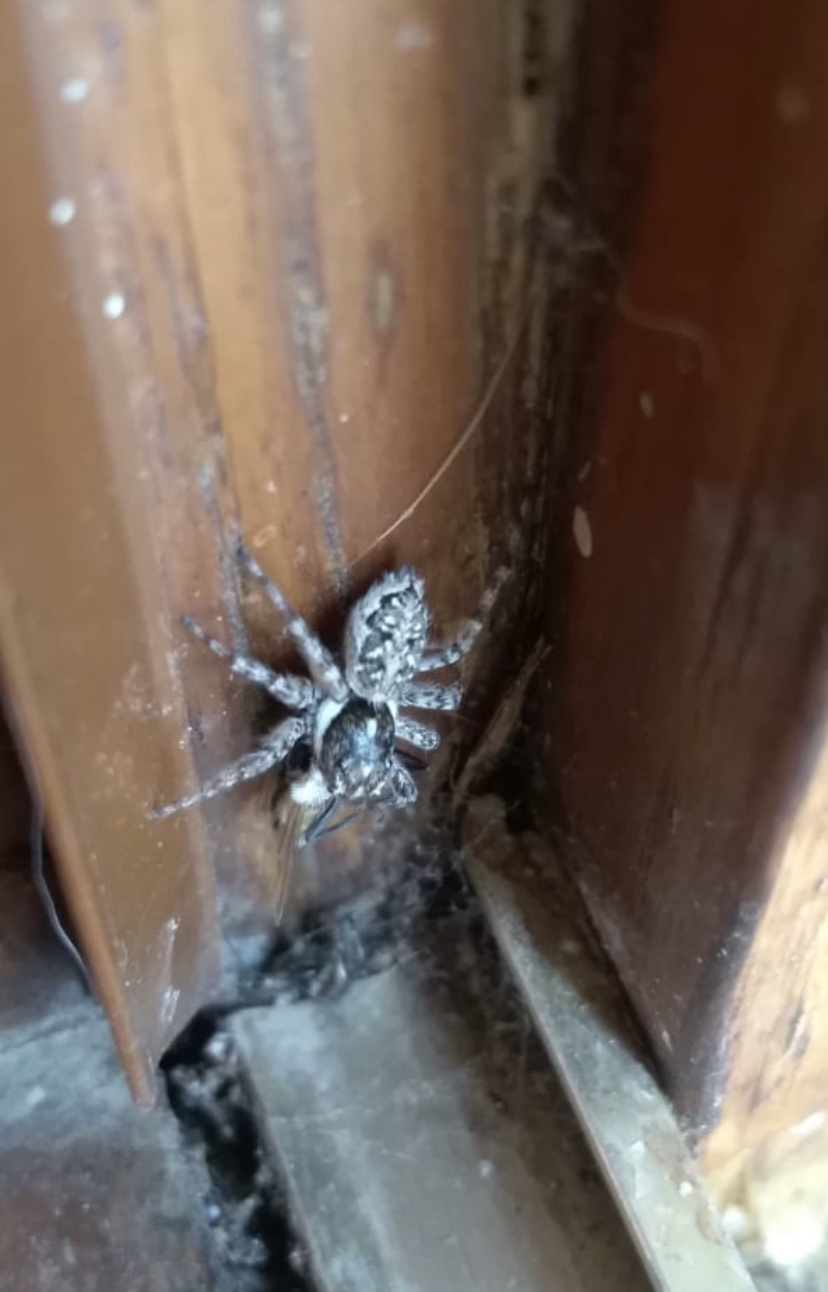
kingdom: Animalia
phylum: Arthropoda
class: Arachnida
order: Araneae
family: Salticidae
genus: Menemerus
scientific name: Menemerus semilimbatus
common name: Jumping spider
